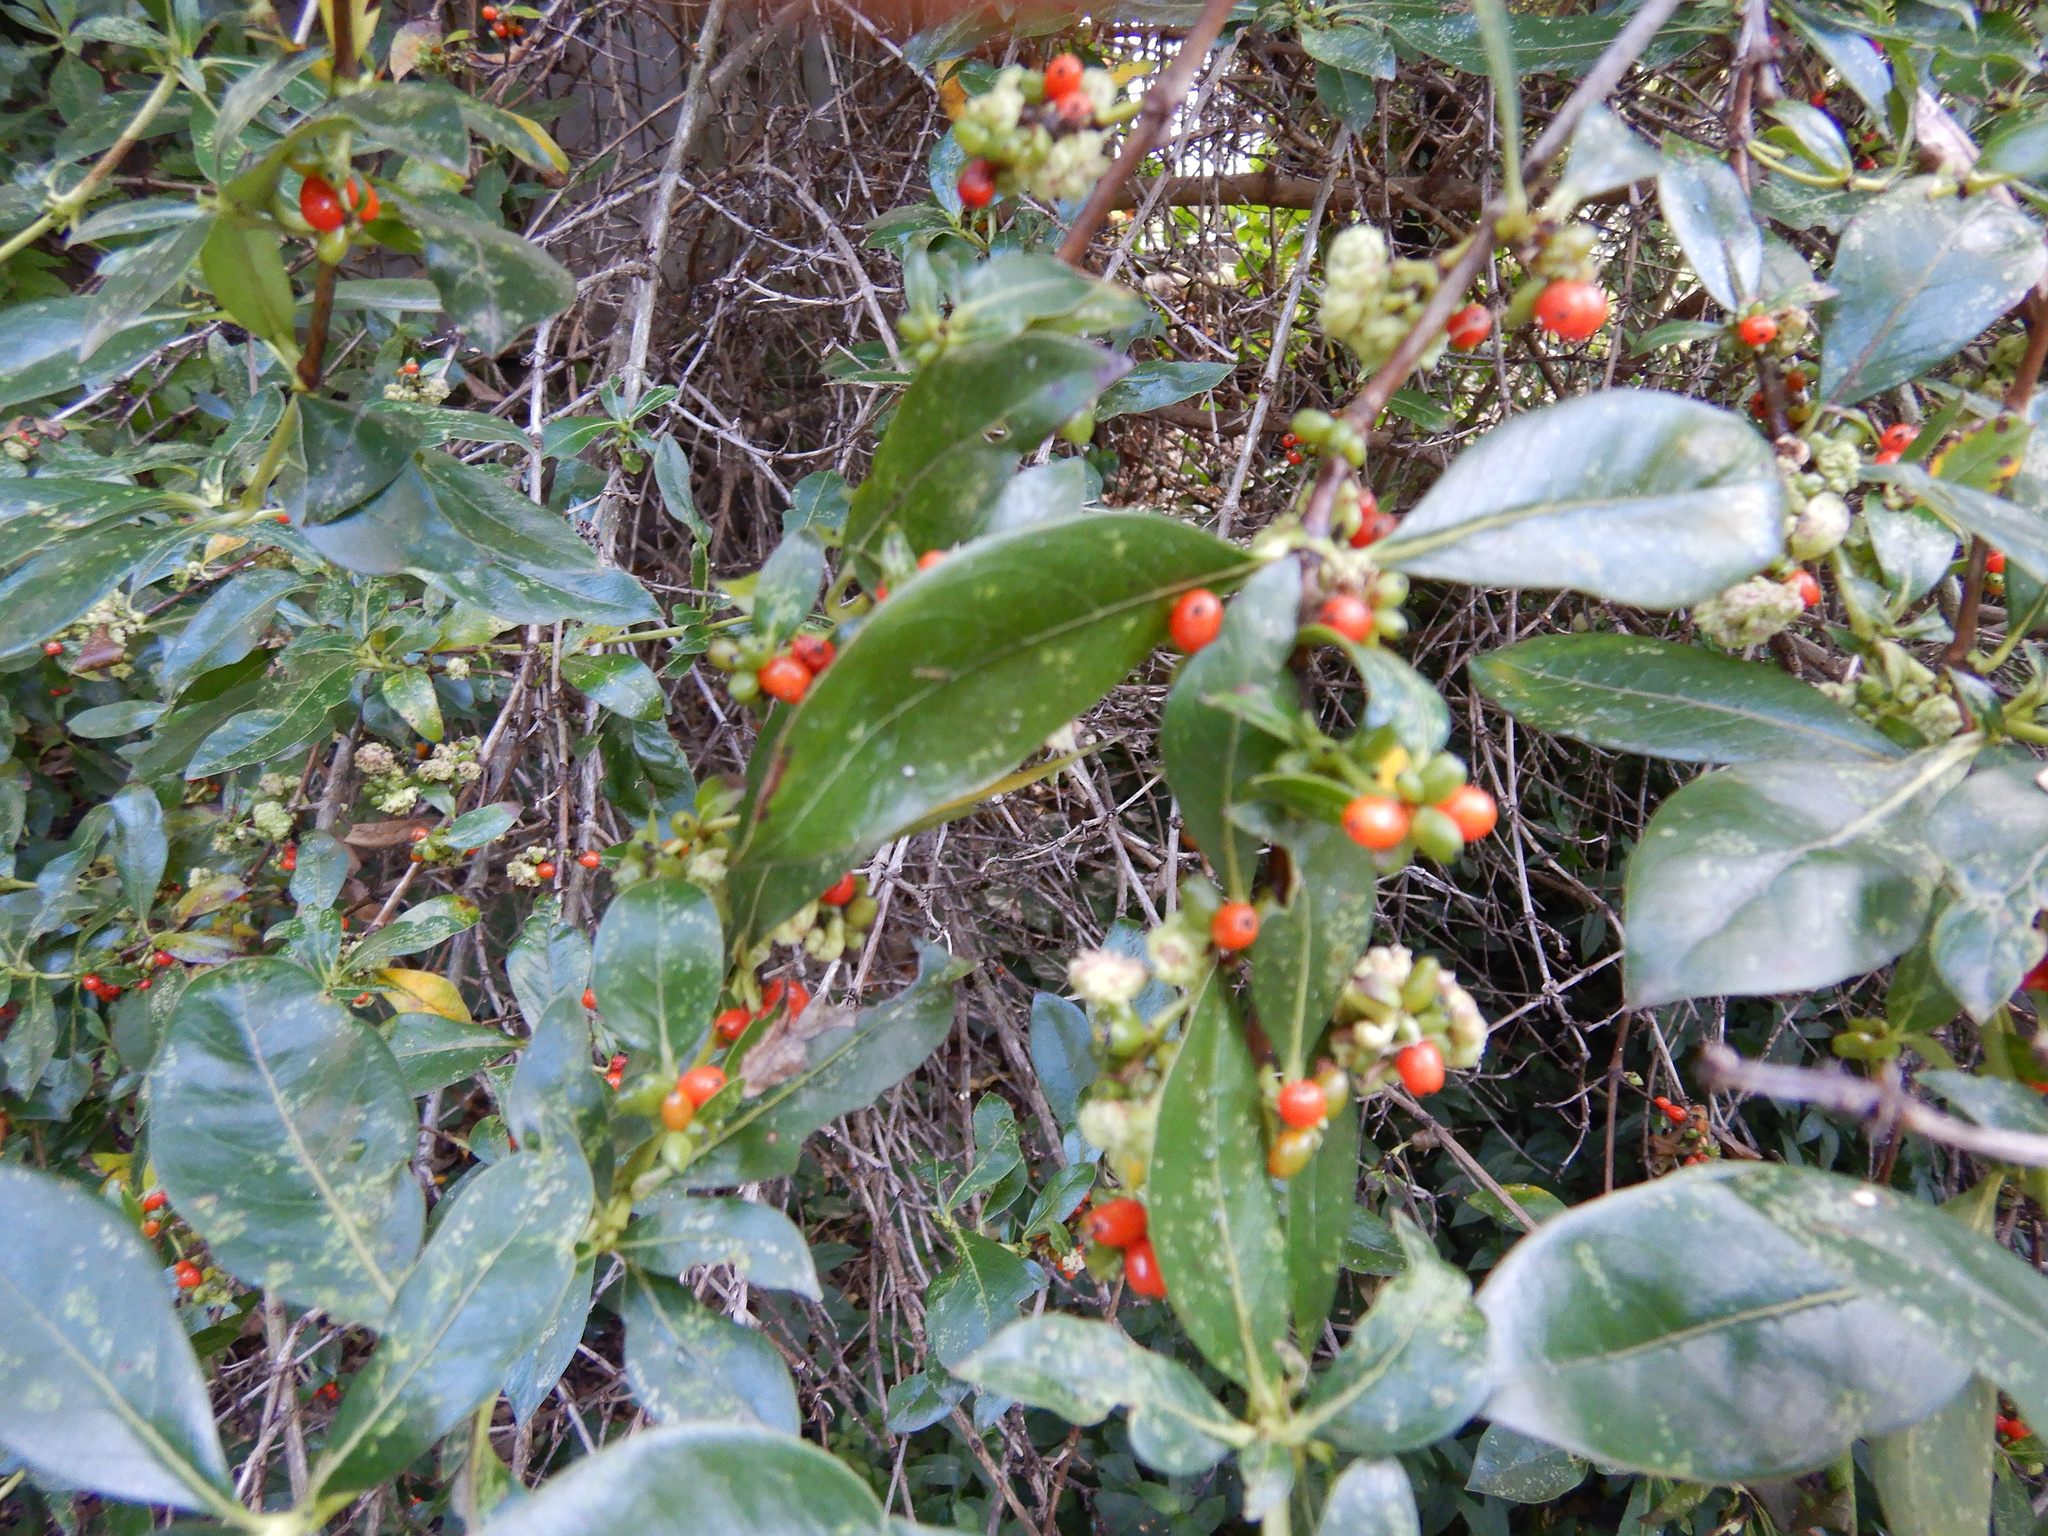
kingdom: Plantae
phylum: Tracheophyta
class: Magnoliopsida
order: Gentianales
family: Rubiaceae
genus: Coprosma
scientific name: Coprosma robusta
